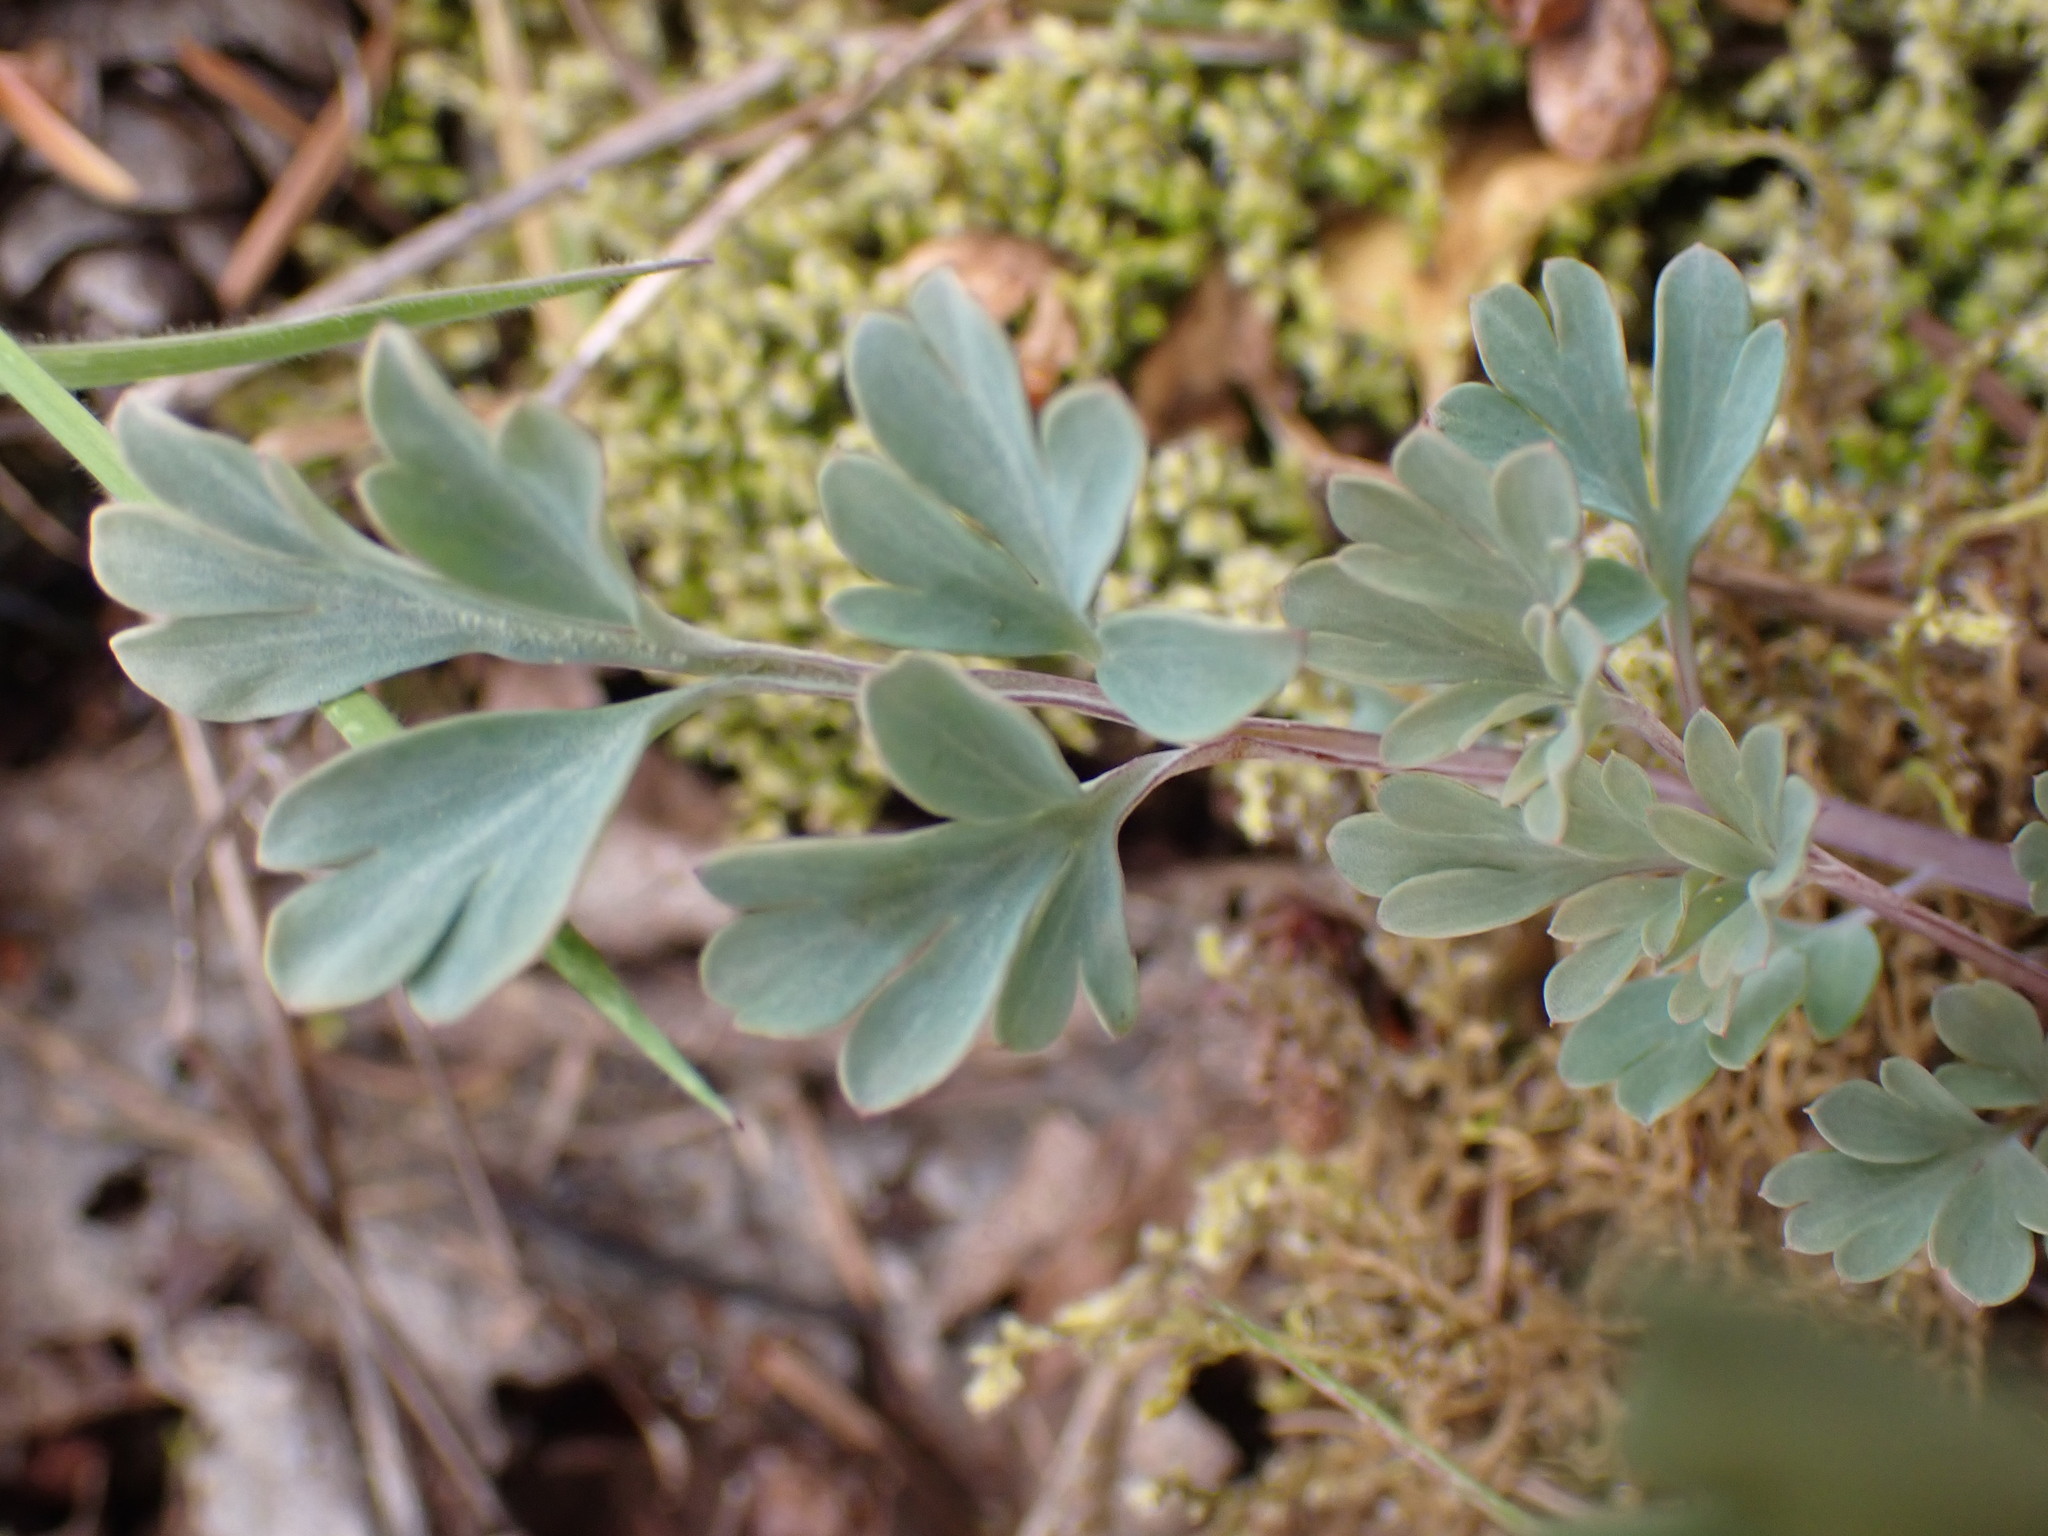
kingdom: Plantae
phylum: Tracheophyta
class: Magnoliopsida
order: Ranunculales
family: Papaveraceae
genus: Capnoides
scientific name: Capnoides sempervirens
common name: Rock harlequin
